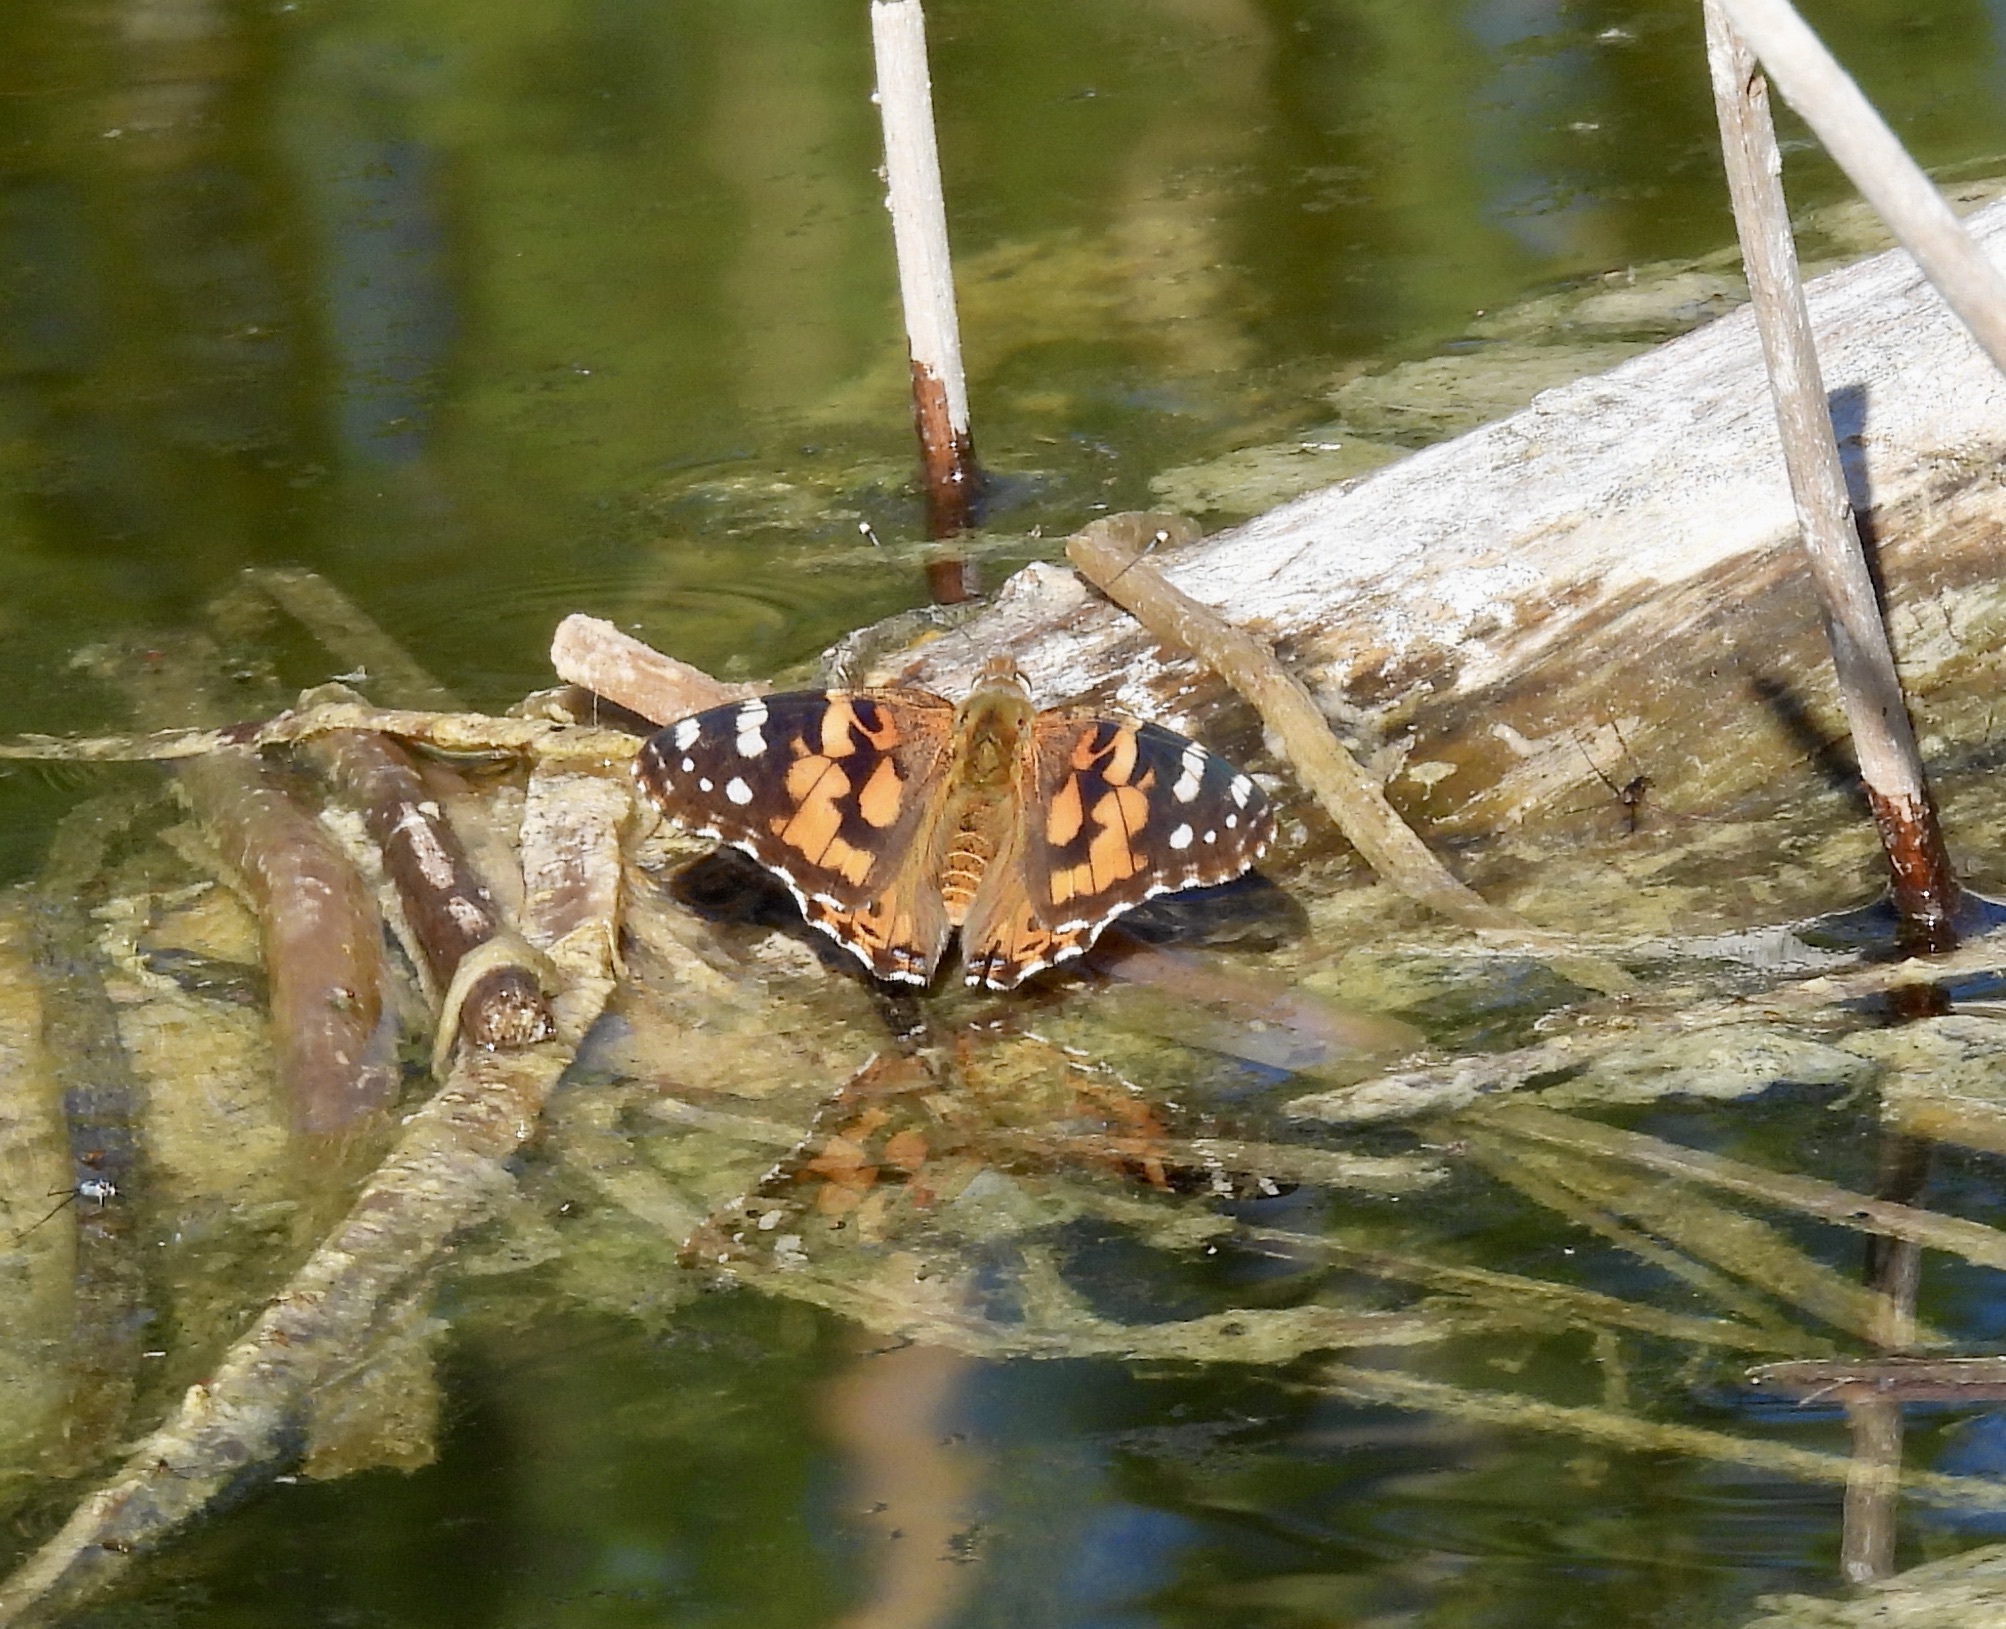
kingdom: Animalia
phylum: Arthropoda
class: Insecta
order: Lepidoptera
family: Nymphalidae
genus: Vanessa
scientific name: Vanessa cardui
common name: Painted lady
